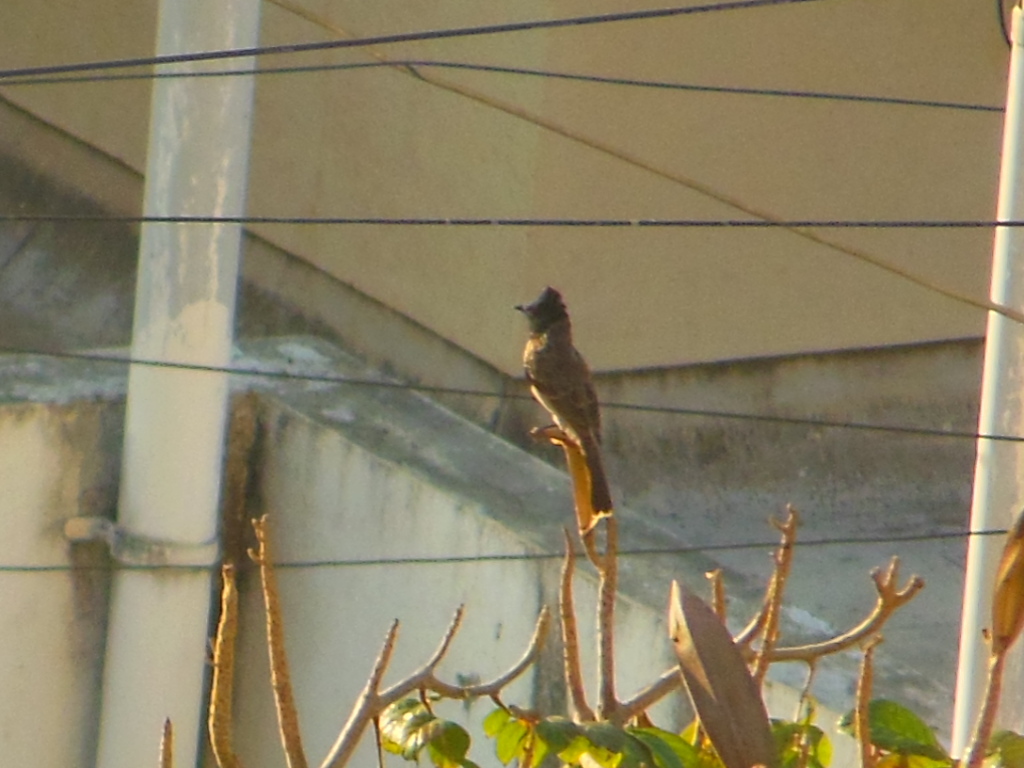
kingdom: Animalia
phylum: Chordata
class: Aves
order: Passeriformes
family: Pycnonotidae
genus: Pycnonotus
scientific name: Pycnonotus cafer
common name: Red-vented bulbul
